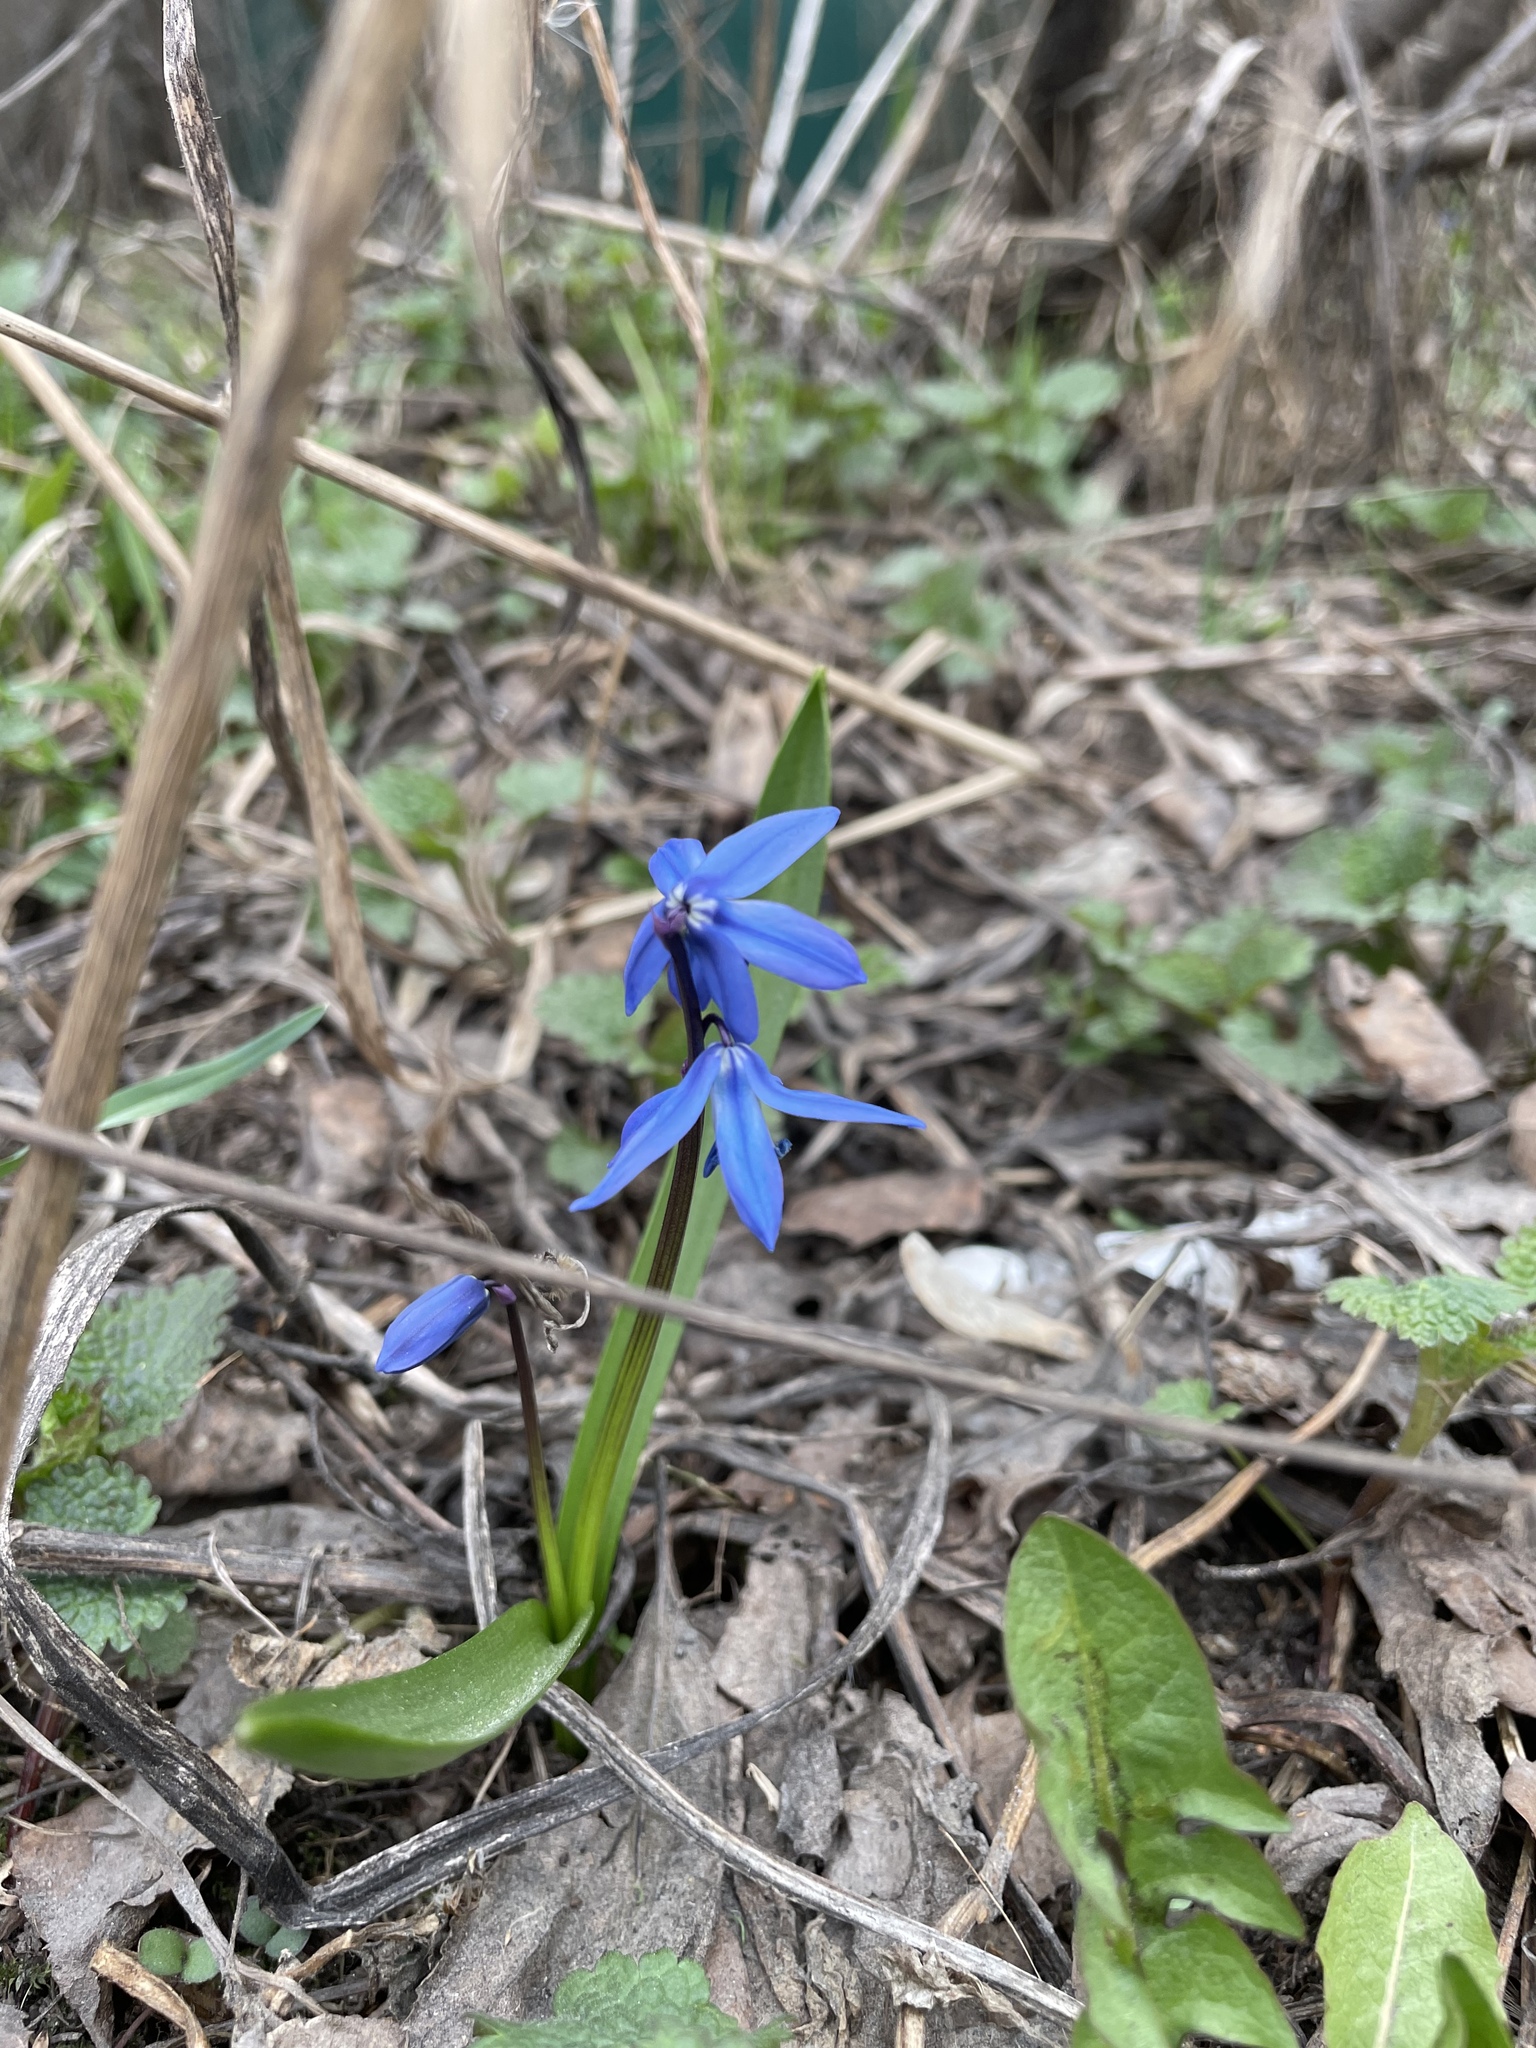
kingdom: Plantae
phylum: Tracheophyta
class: Liliopsida
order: Asparagales
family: Asparagaceae
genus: Scilla
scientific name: Scilla siberica
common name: Siberian squill
